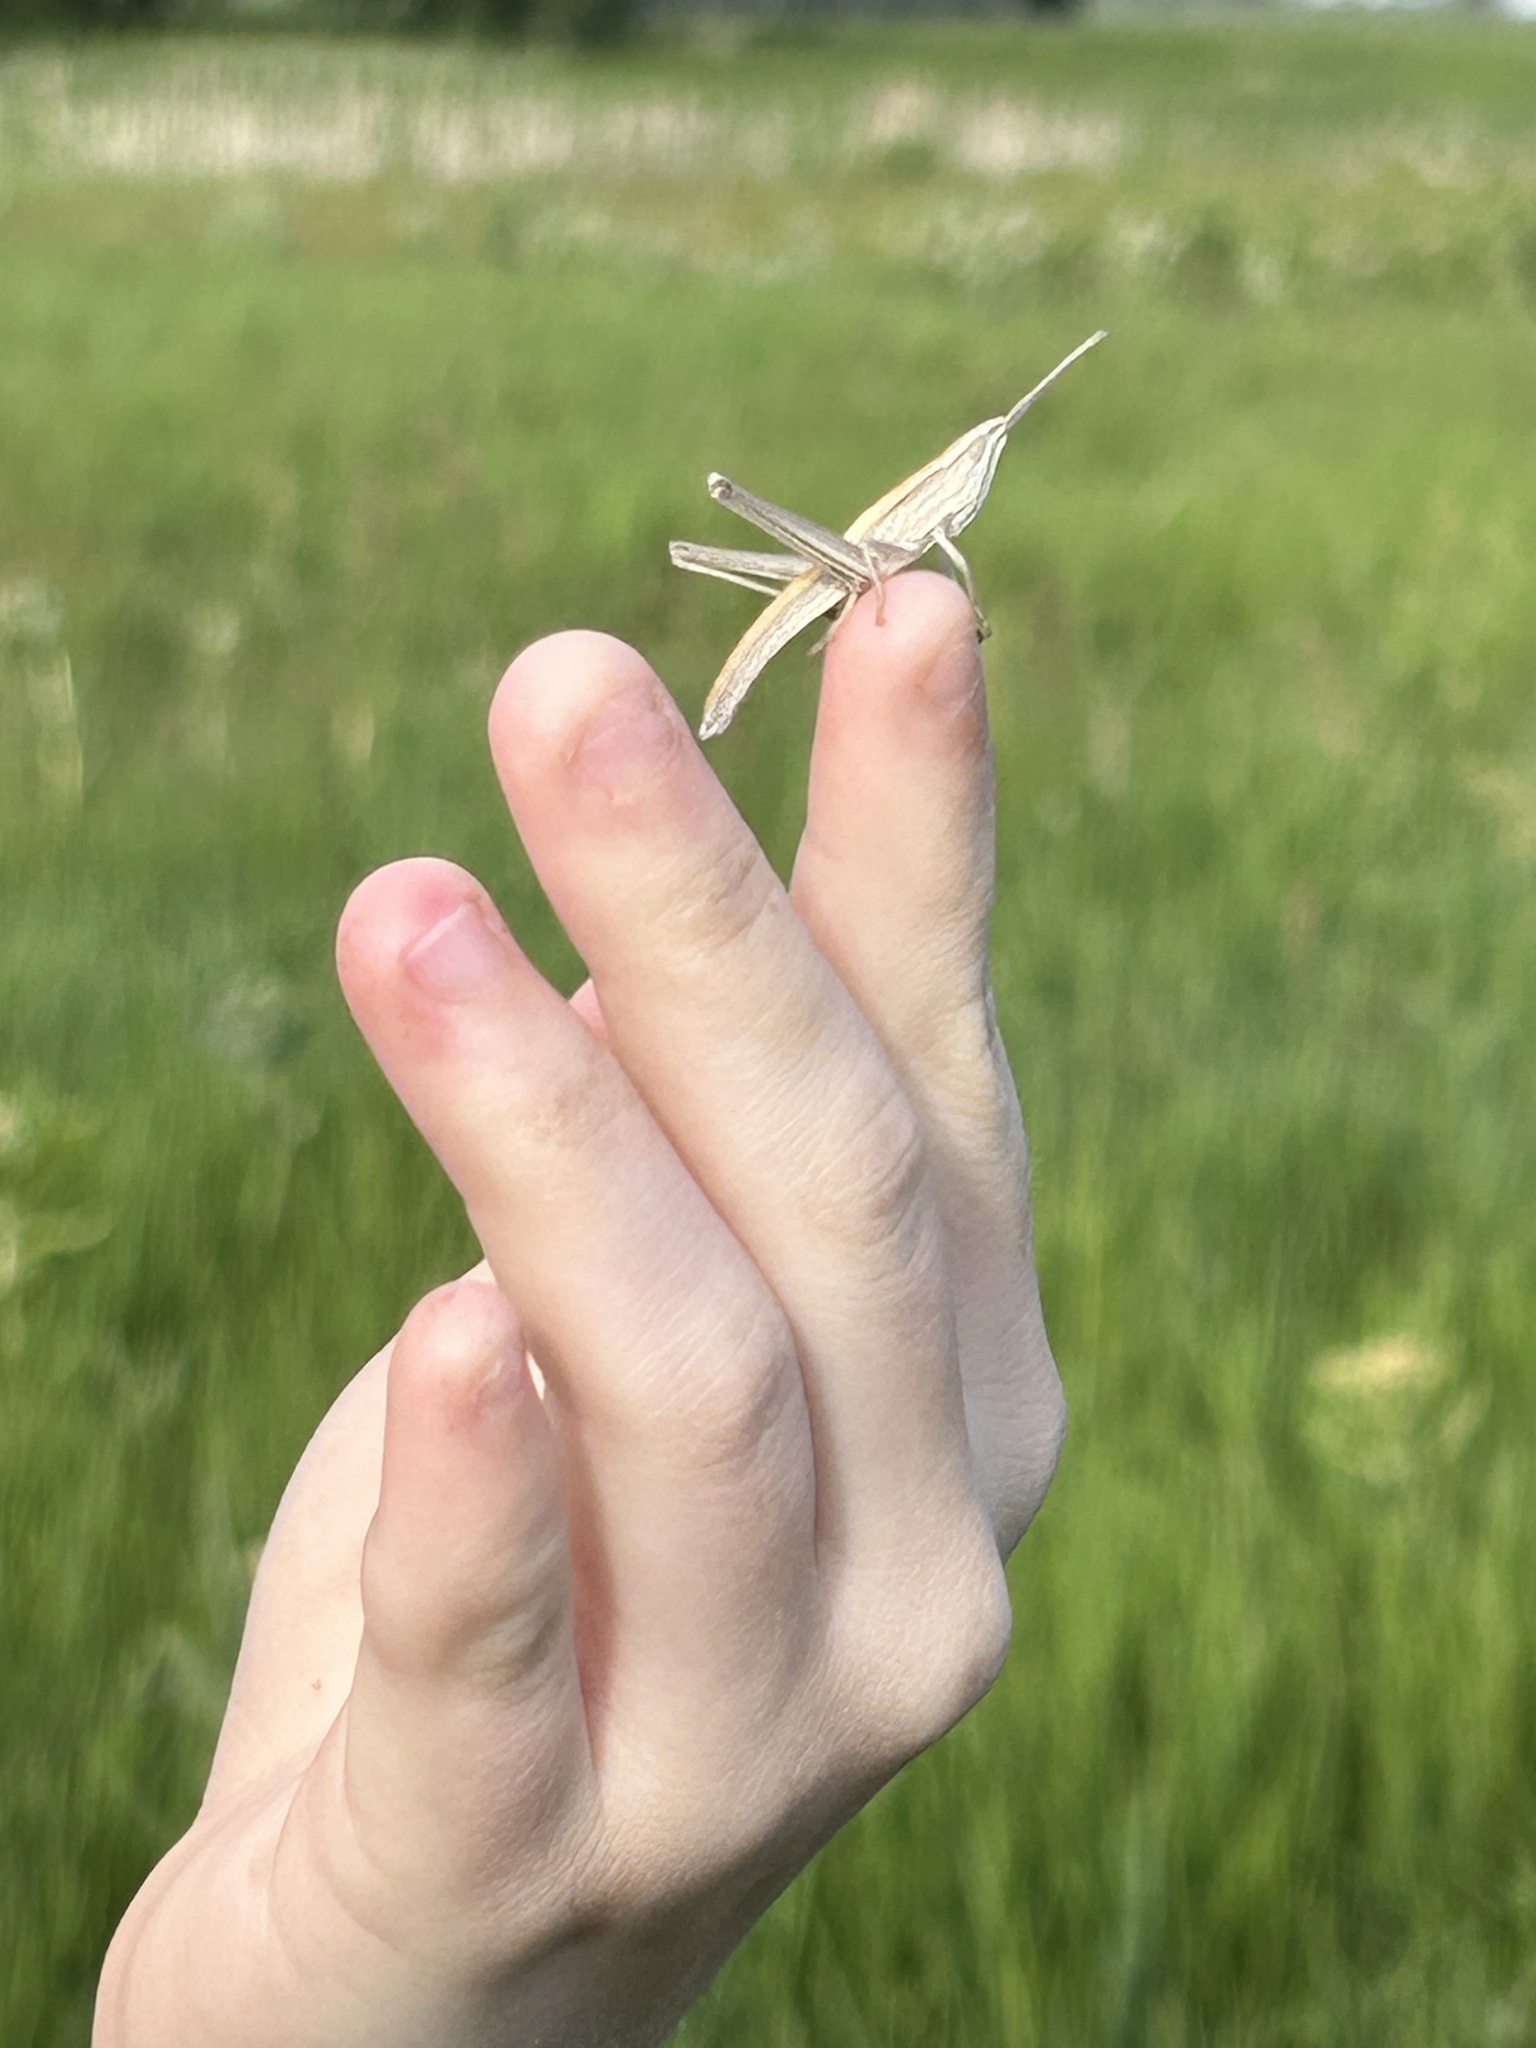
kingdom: Animalia
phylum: Arthropoda
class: Insecta
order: Orthoptera
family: Acrididae
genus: Pseudopomala
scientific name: Pseudopomala brachyptera
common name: Bunchgrass grasshopper
